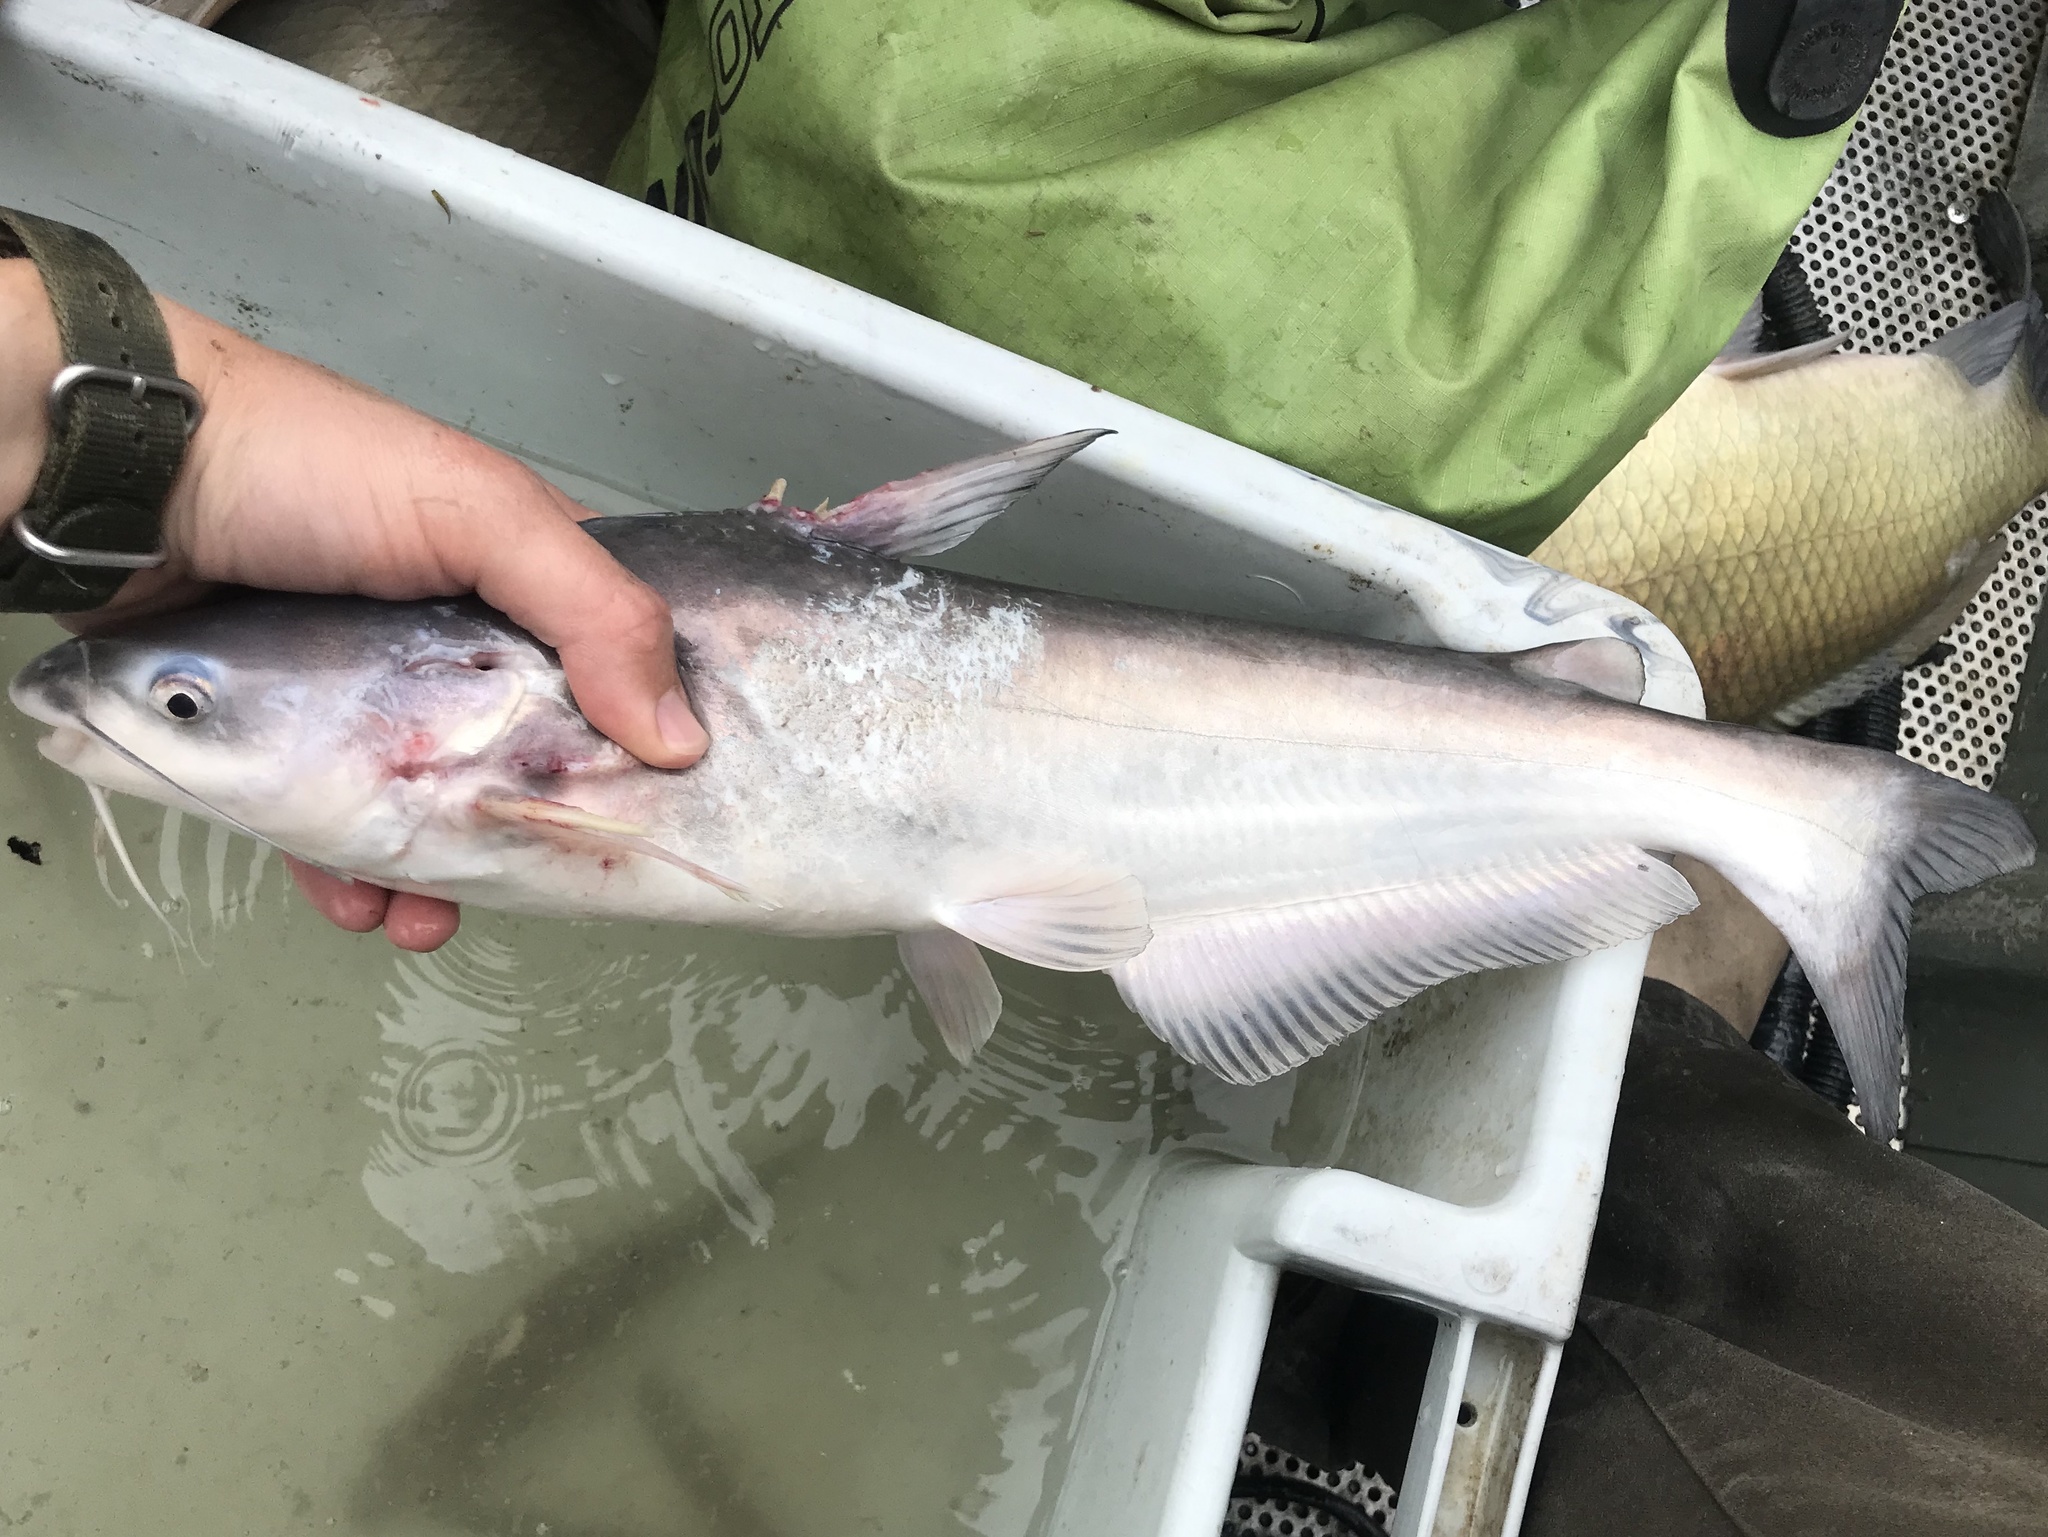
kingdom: Animalia
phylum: Chordata
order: Siluriformes
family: Ictaluridae
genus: Ictalurus
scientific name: Ictalurus furcatus
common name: Blue catfish
